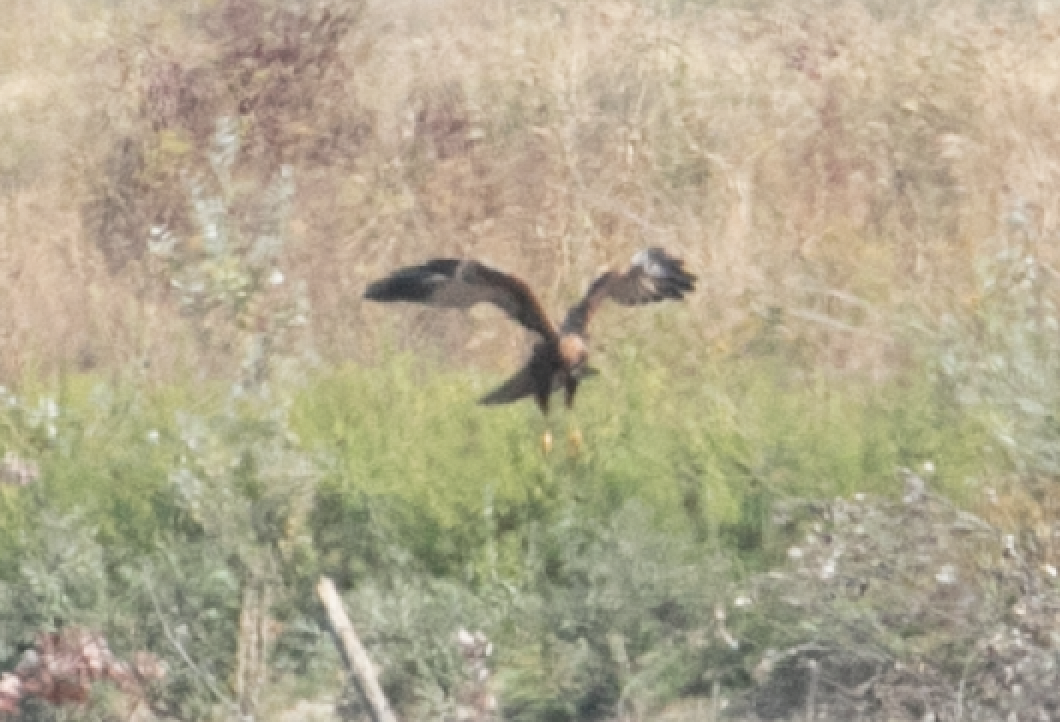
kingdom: Animalia
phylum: Chordata
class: Aves
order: Accipitriformes
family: Accipitridae
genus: Circus
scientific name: Circus aeruginosus
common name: Western marsh harrier
